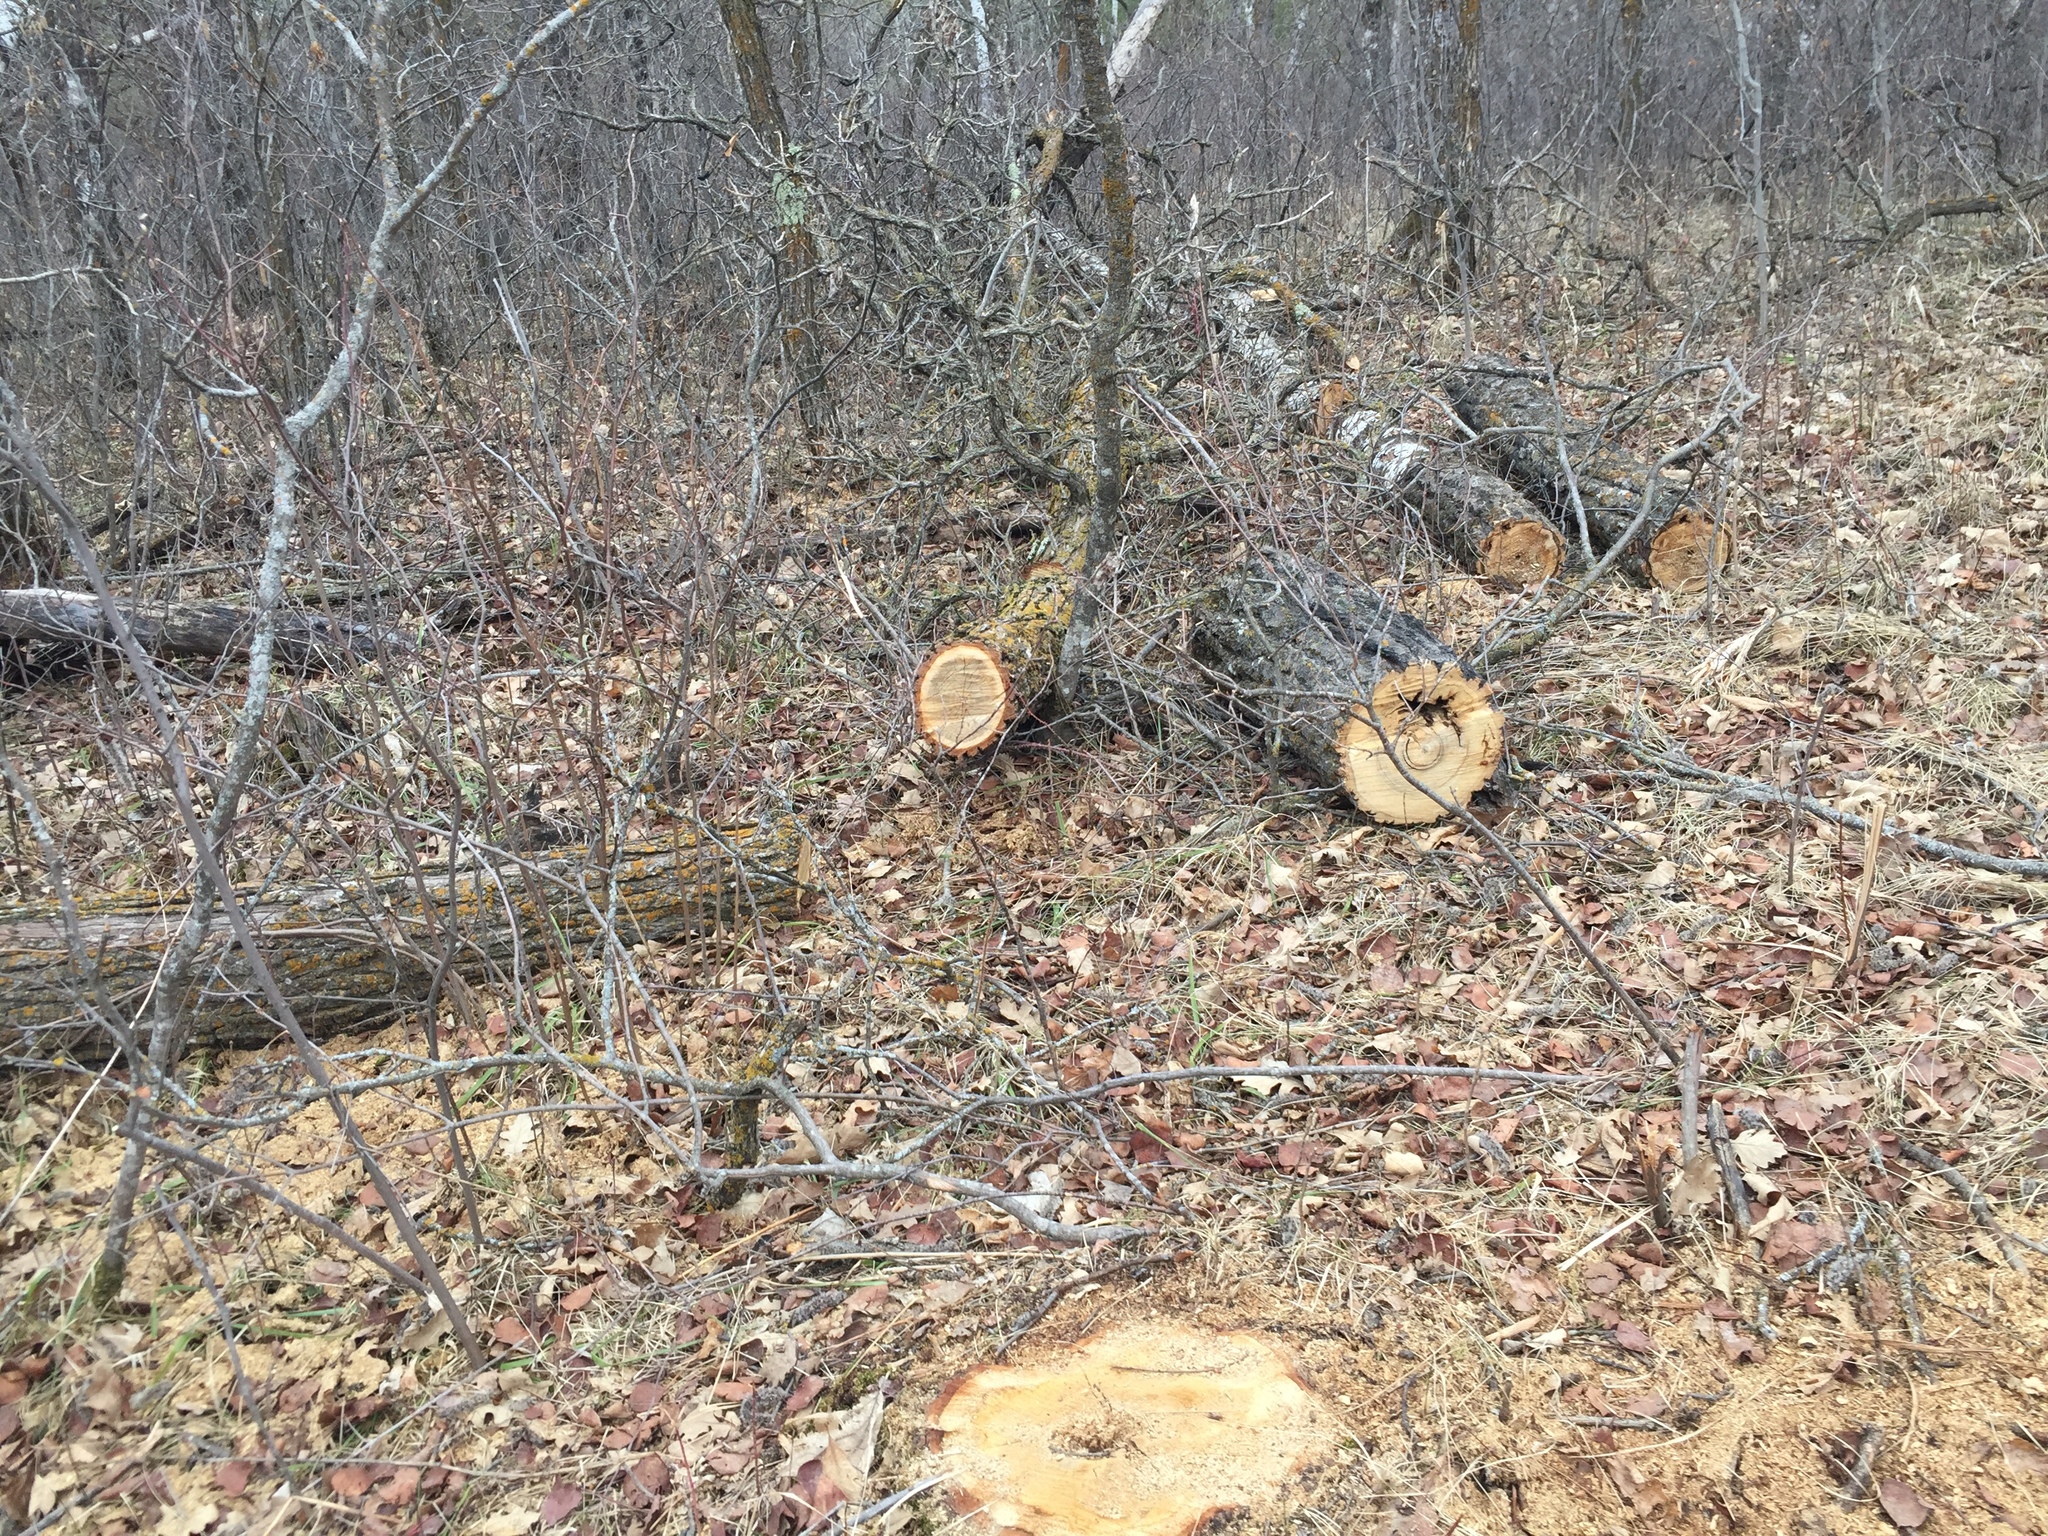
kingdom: Plantae
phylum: Tracheophyta
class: Magnoliopsida
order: Fagales
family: Fagaceae
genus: Quercus
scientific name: Quercus macrocarpa
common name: Bur oak
